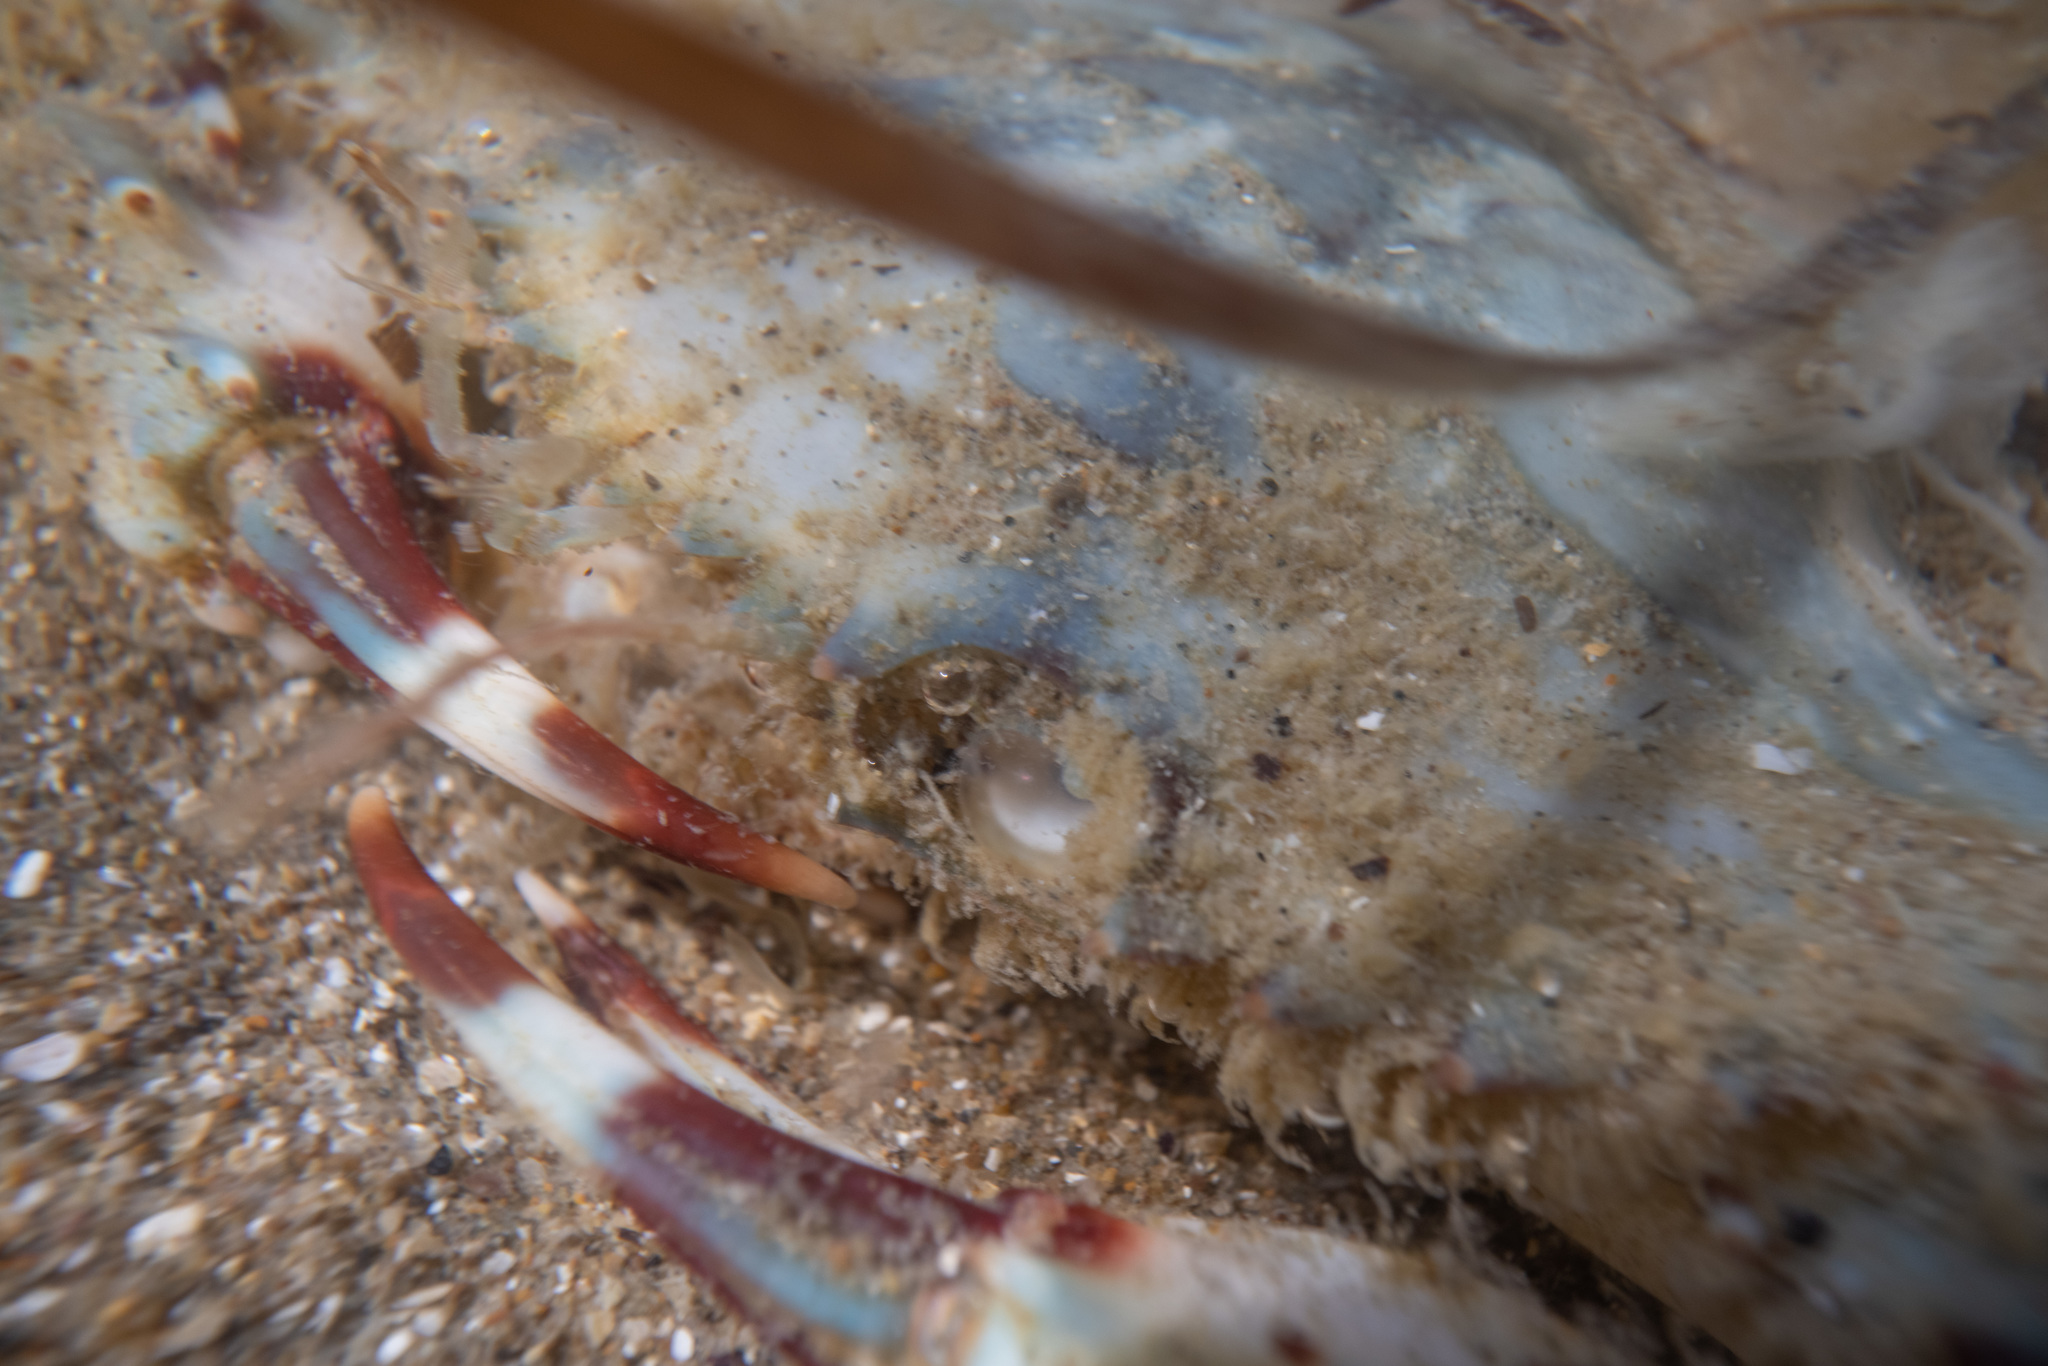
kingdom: Animalia
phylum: Arthropoda
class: Malacostraca
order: Decapoda
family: Portunidae
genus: Charybdis
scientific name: Charybdis japonica
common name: Asian paddle crab
